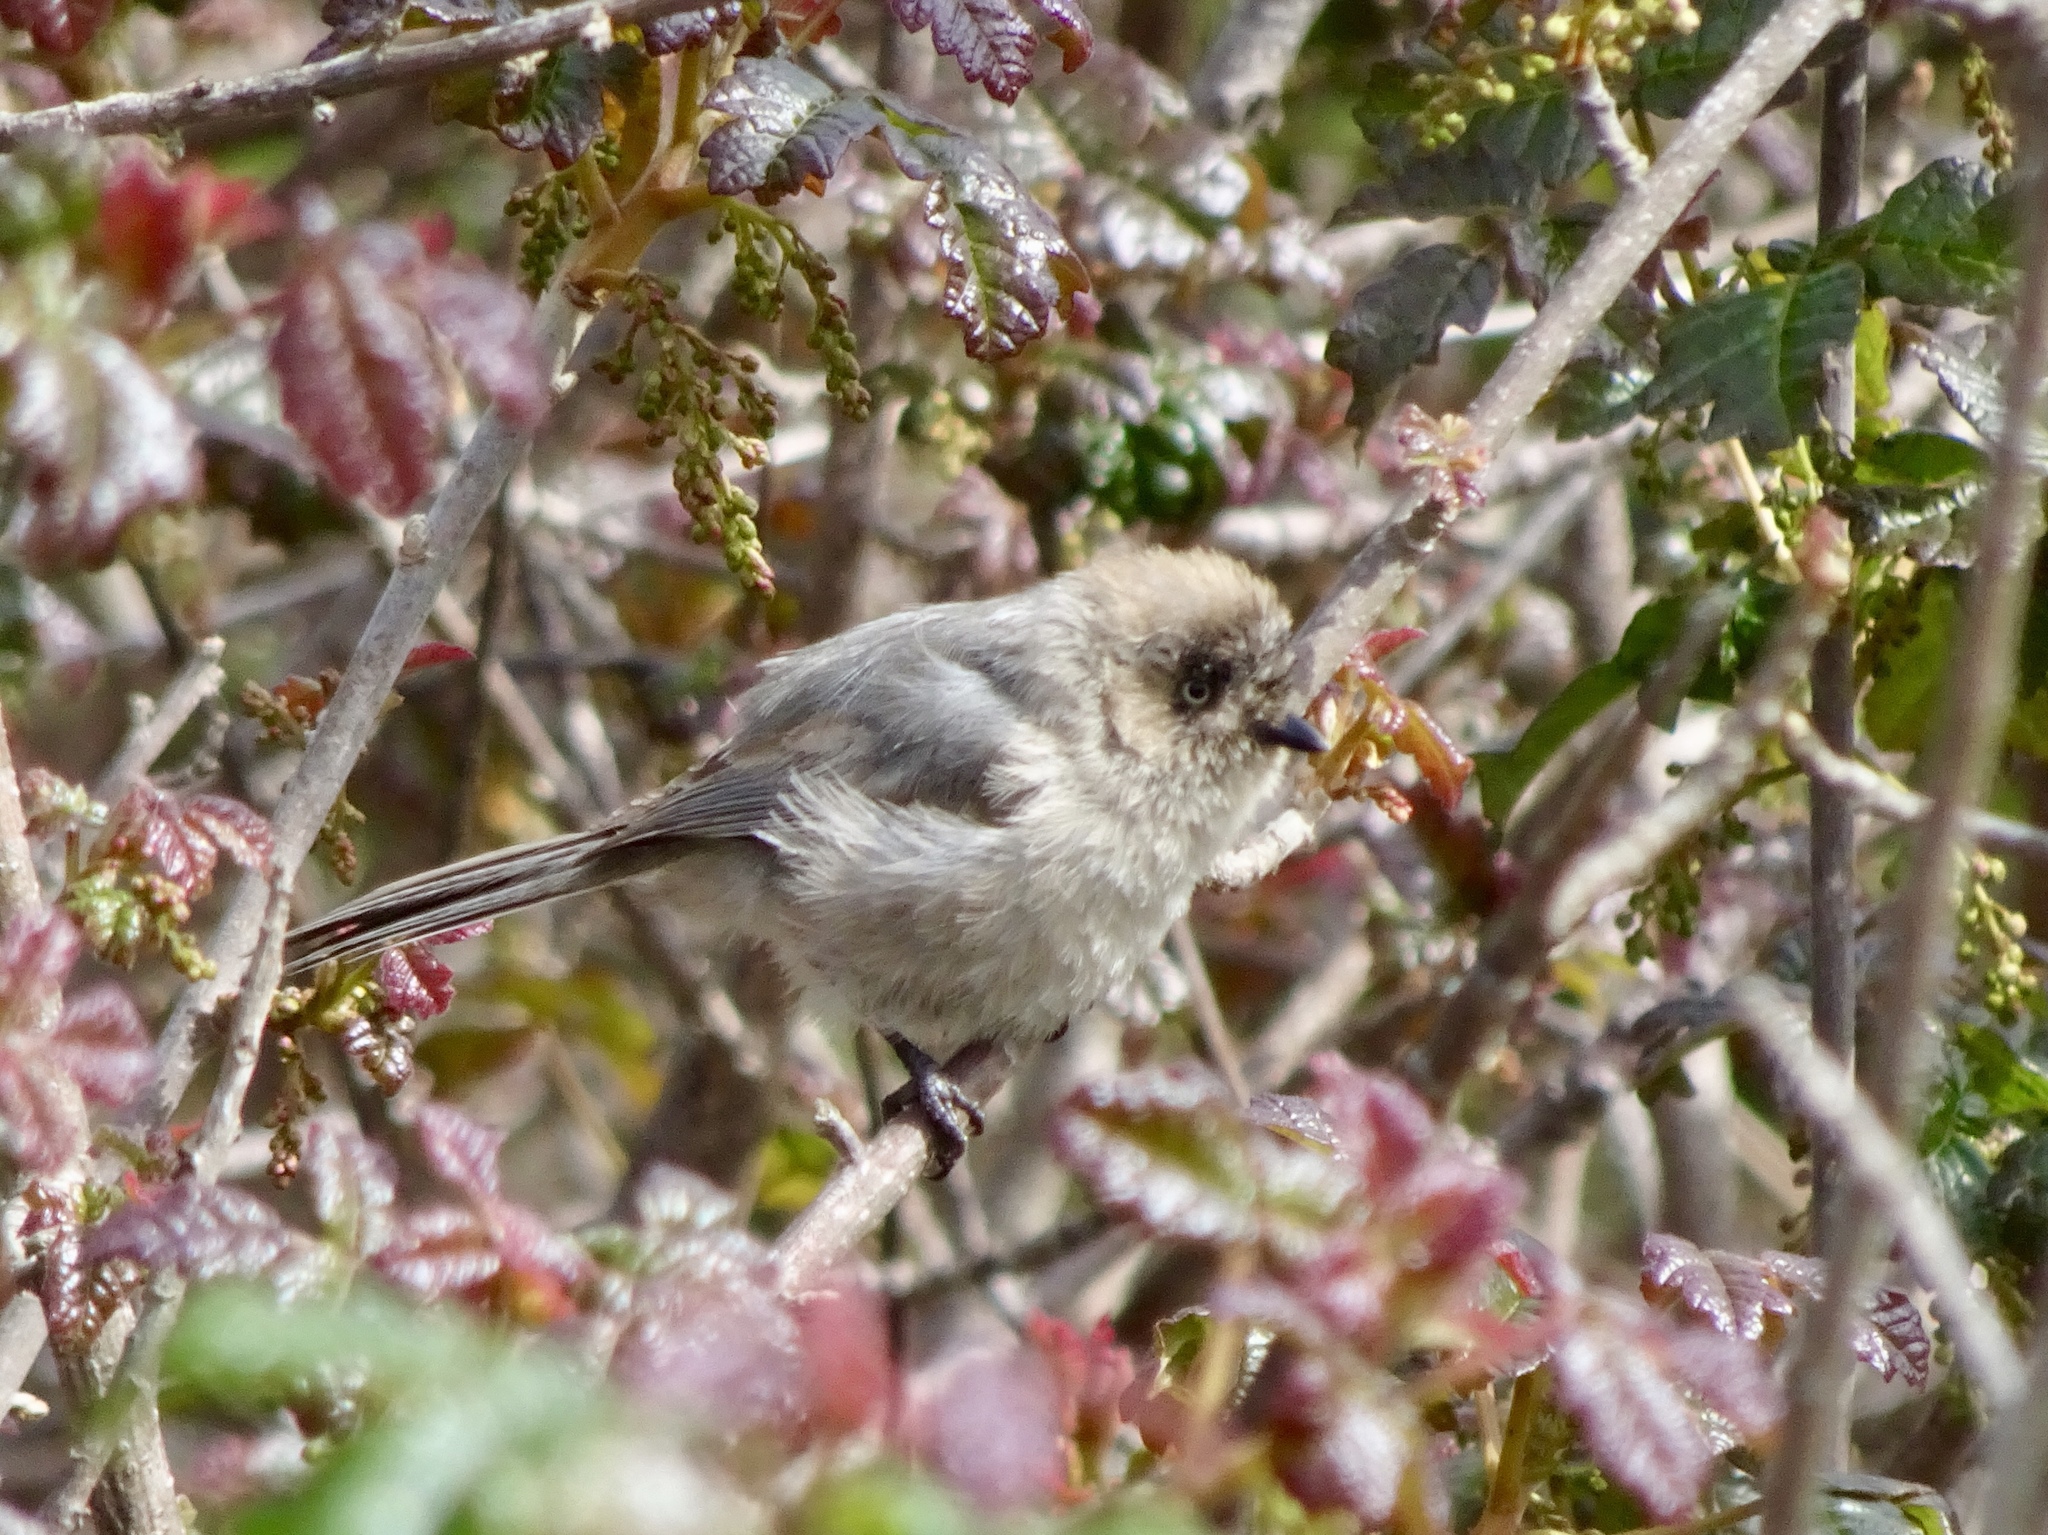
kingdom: Animalia
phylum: Chordata
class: Aves
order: Passeriformes
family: Aegithalidae
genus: Psaltriparus
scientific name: Psaltriparus minimus
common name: American bushtit
